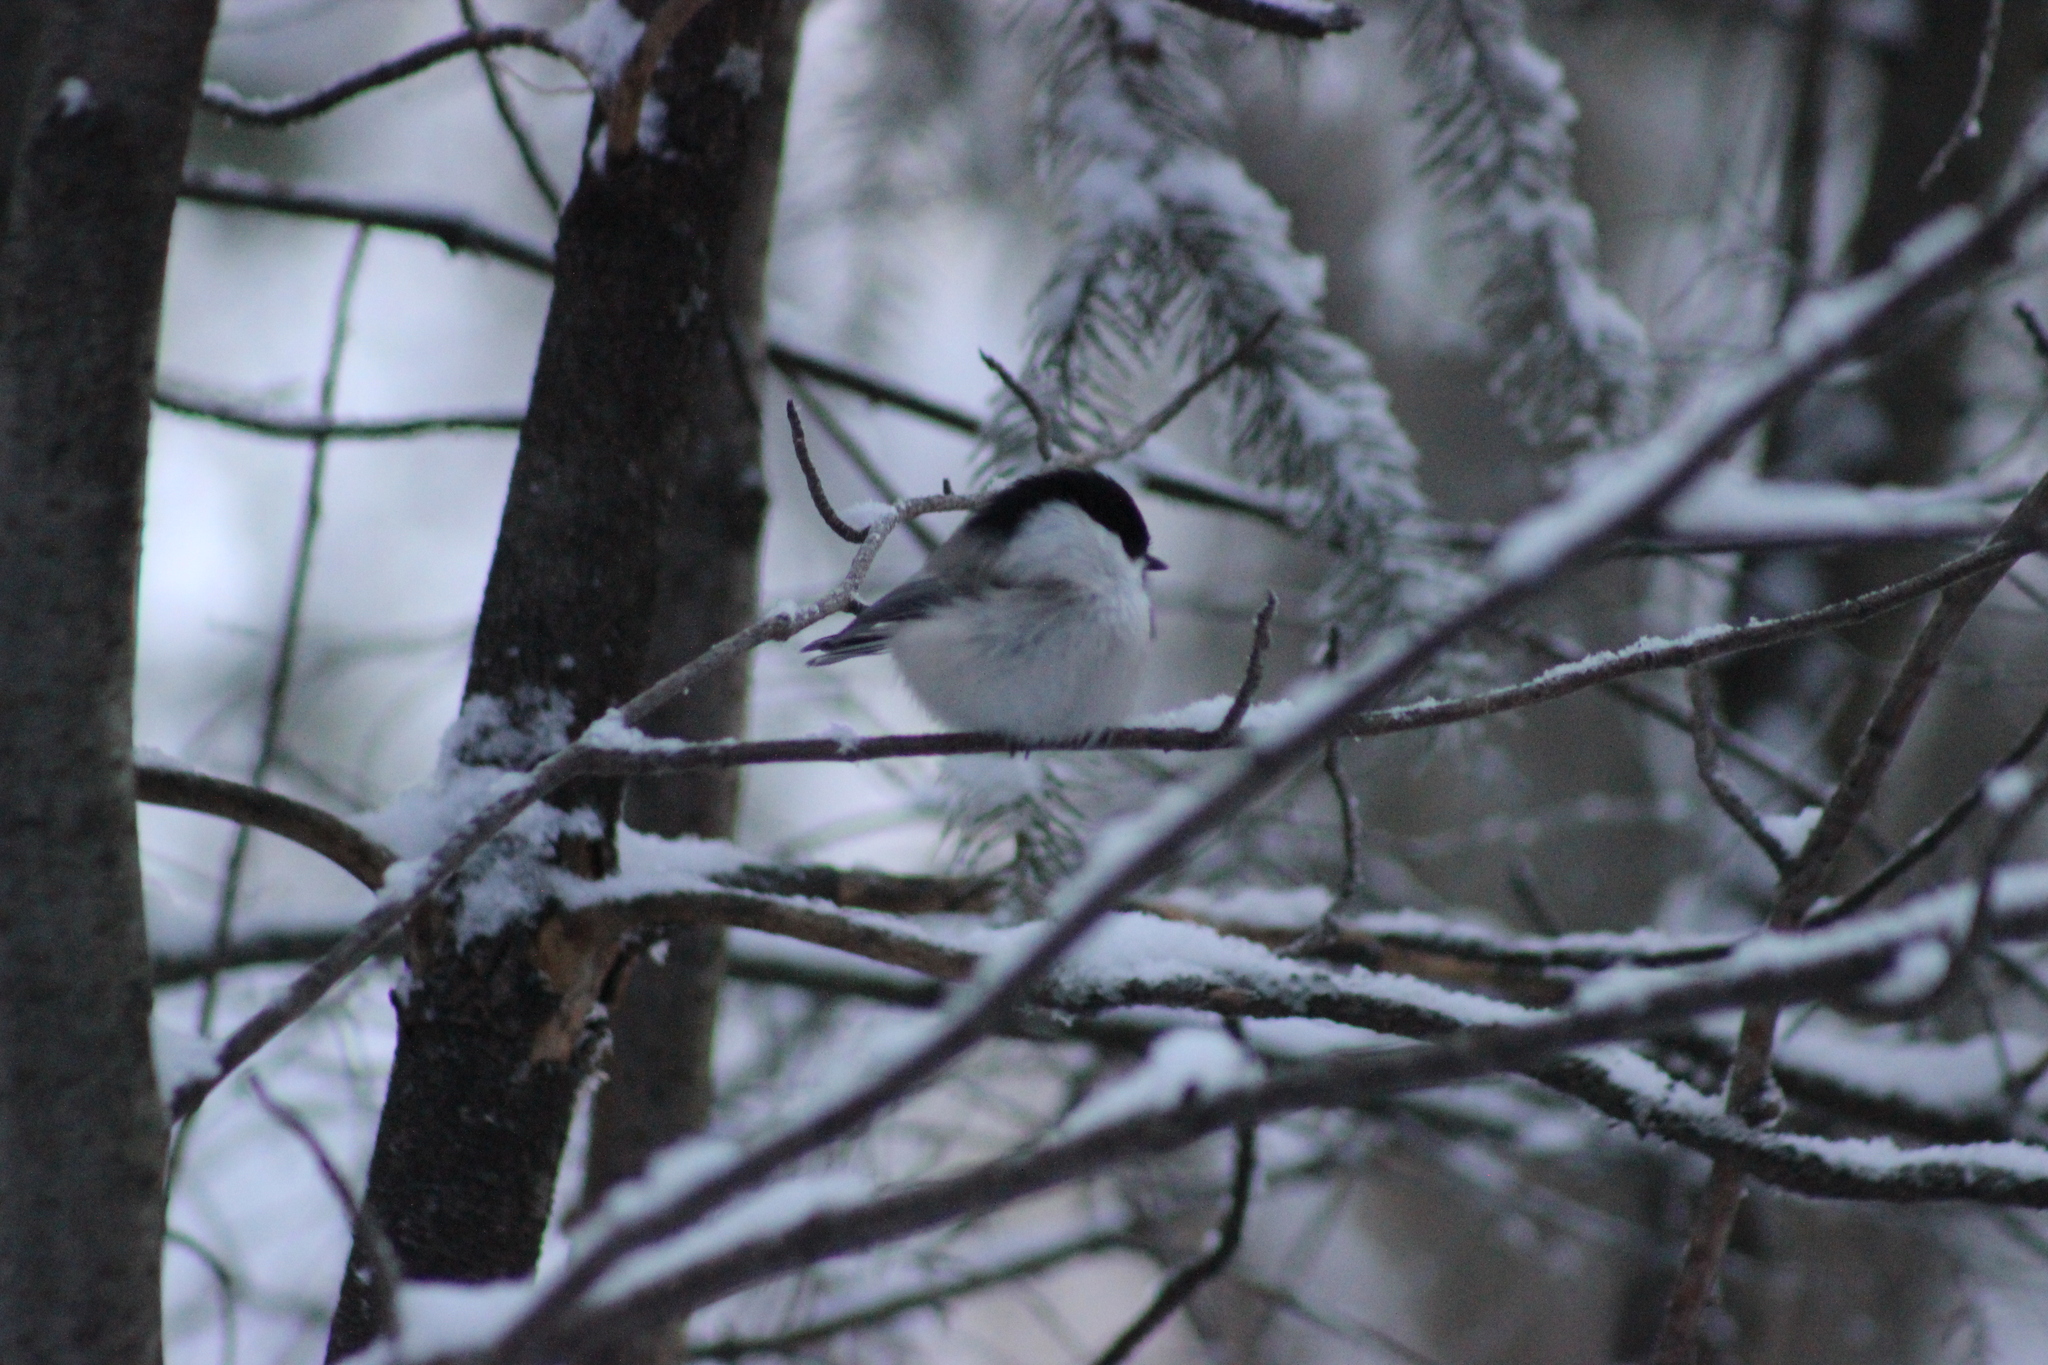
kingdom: Animalia
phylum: Chordata
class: Aves
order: Passeriformes
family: Paridae
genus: Poecile
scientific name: Poecile montanus
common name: Willow tit
